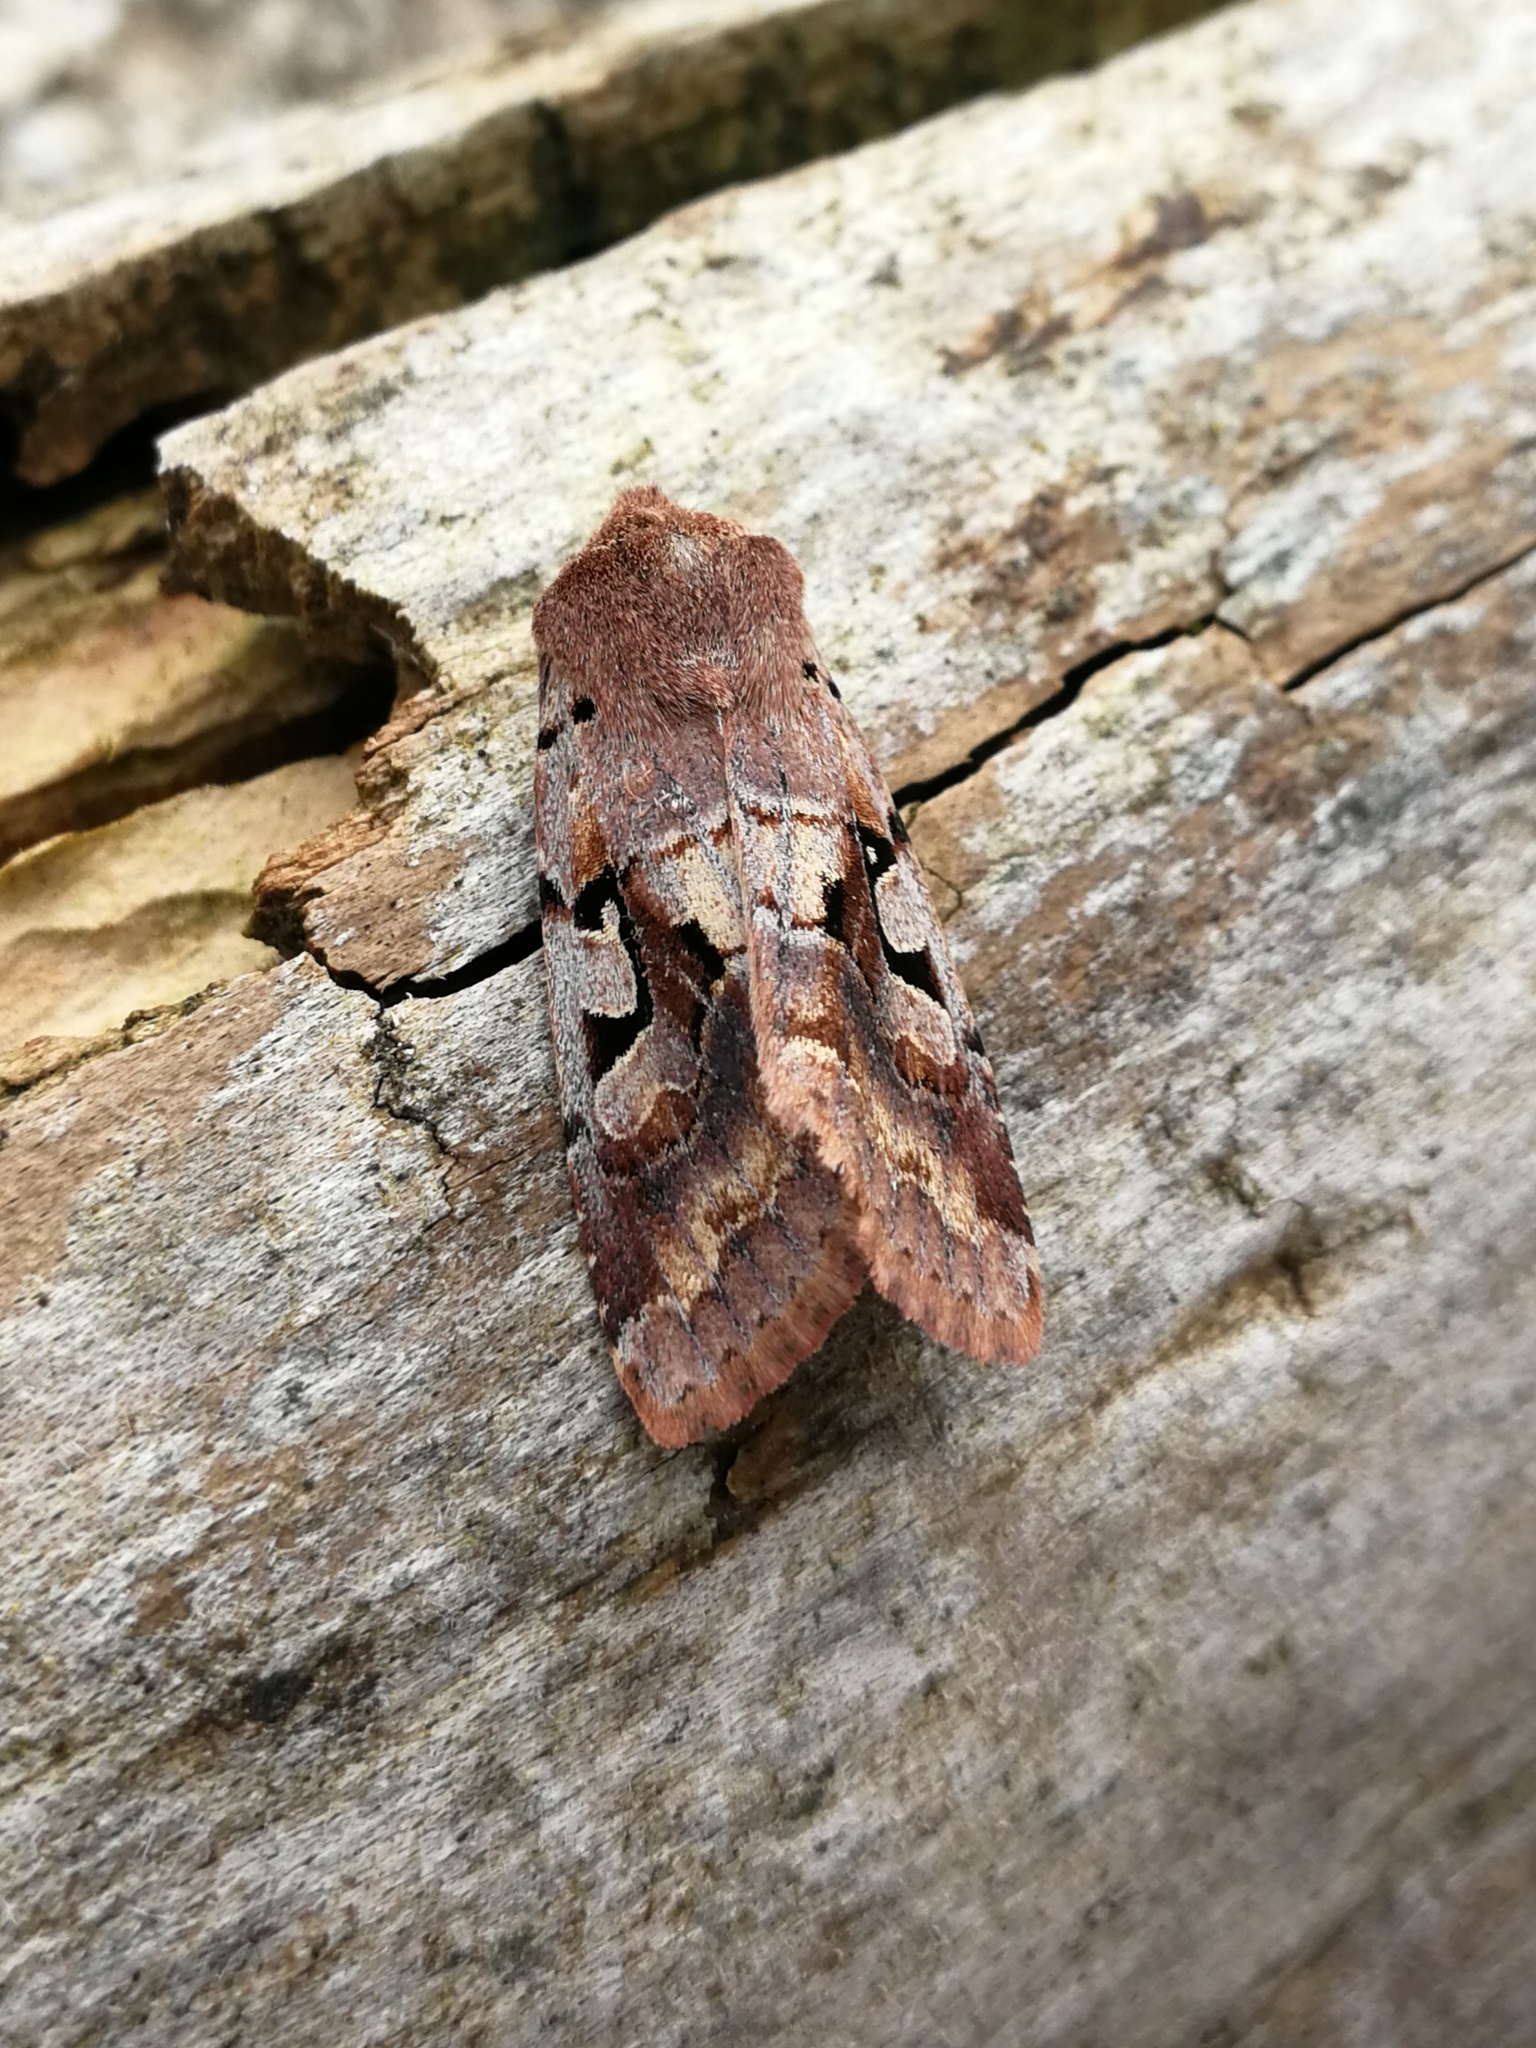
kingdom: Animalia
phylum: Arthropoda
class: Insecta
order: Lepidoptera
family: Noctuidae
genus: Orthosia
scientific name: Orthosia gothica
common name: Hebrew character
